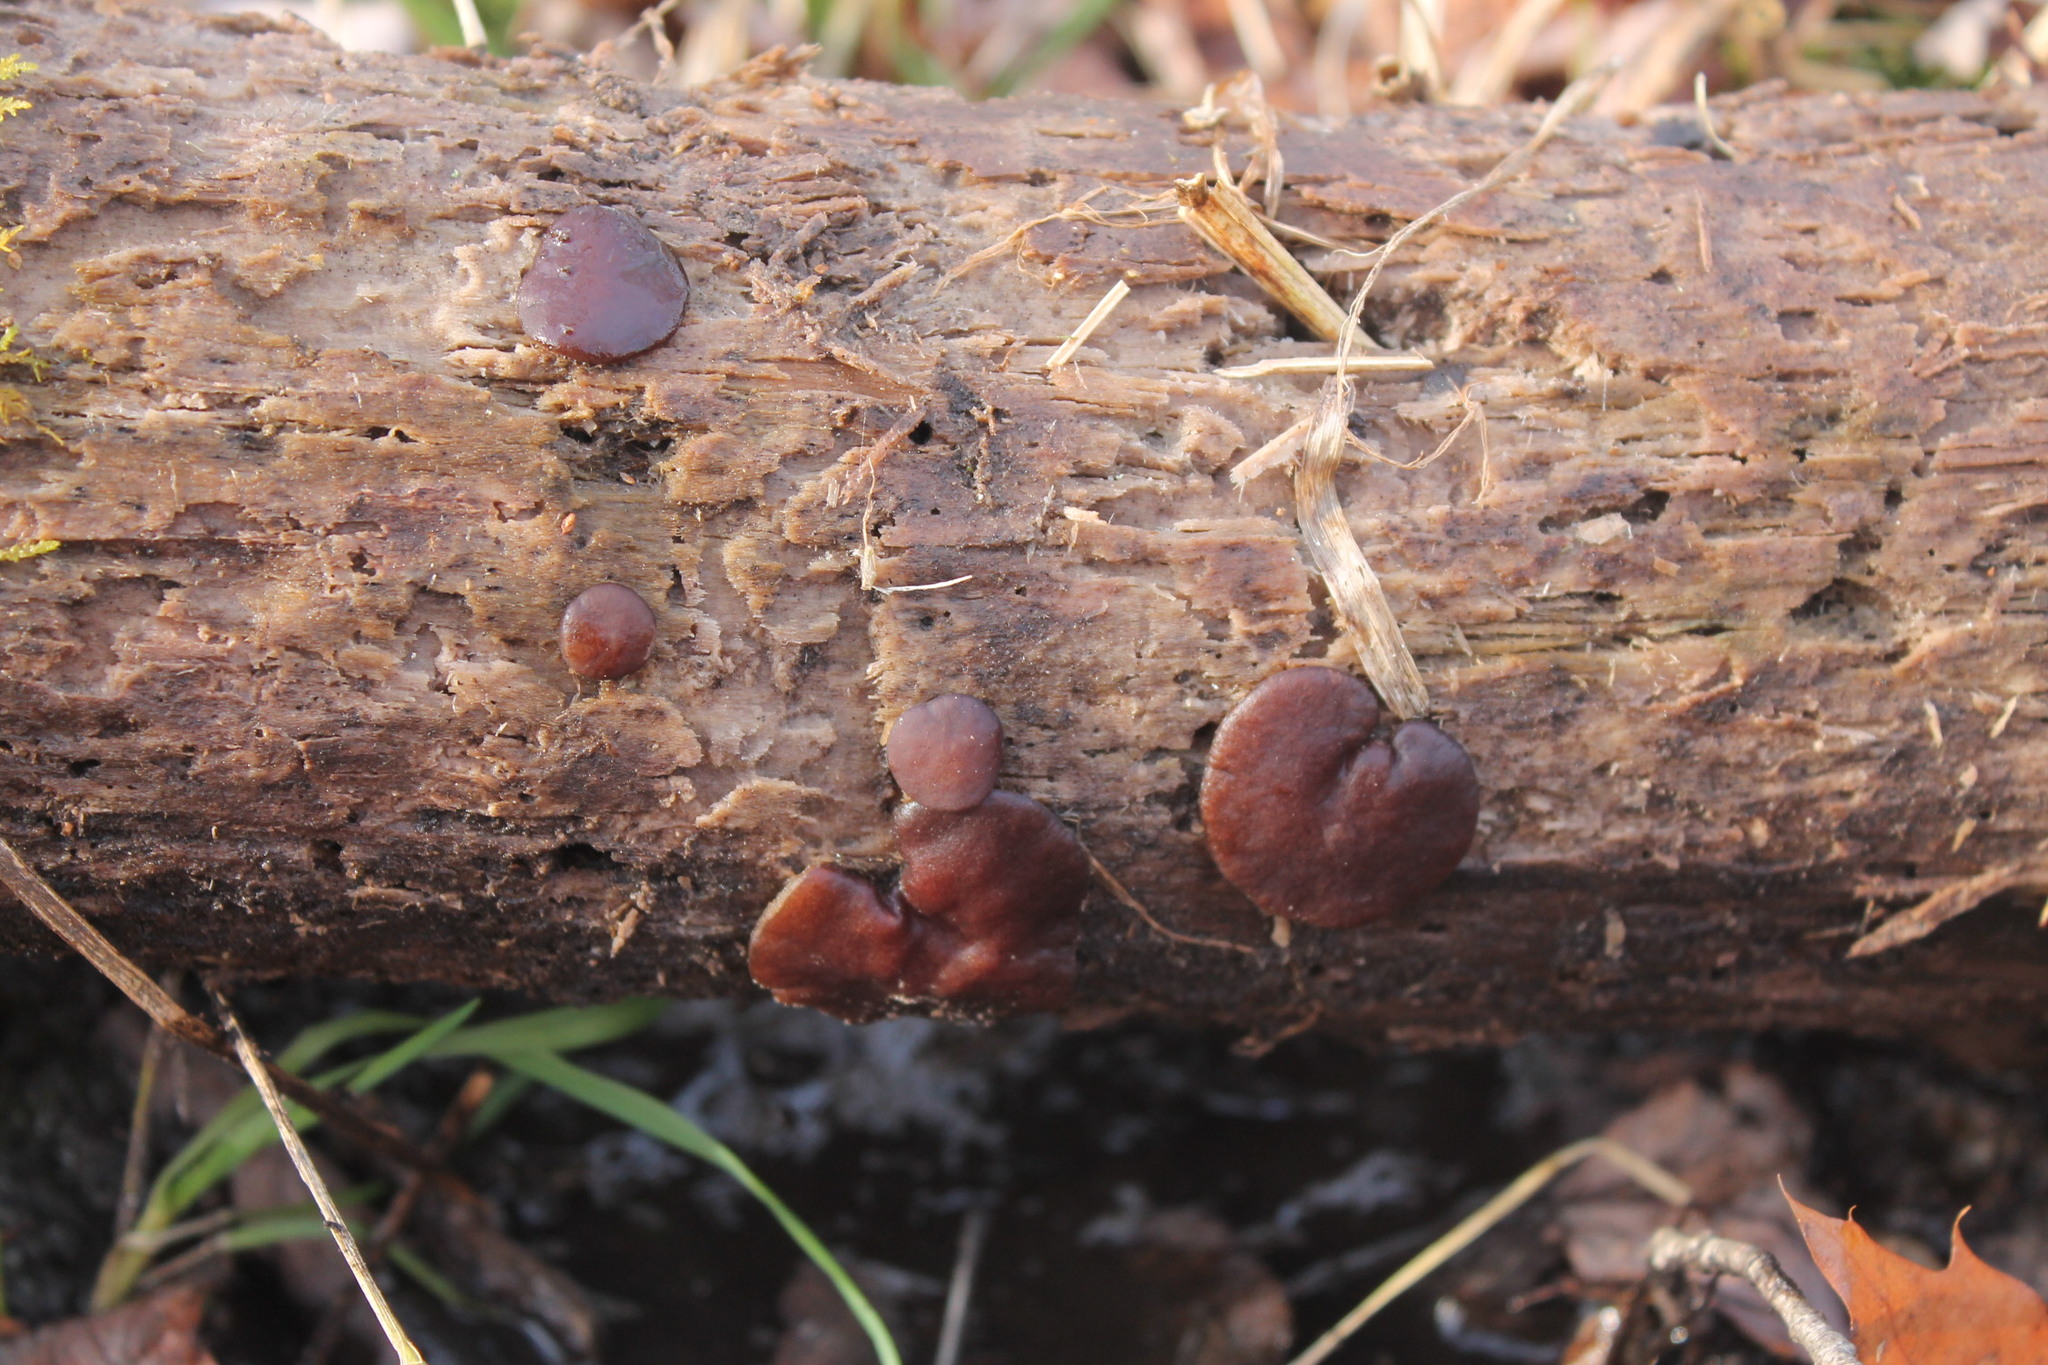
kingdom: Fungi
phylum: Ascomycota
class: Pezizomycetes
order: Pezizales
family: Pezizaceae
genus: Pachyella
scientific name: Pachyella clypeata
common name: Copper penny fungus
